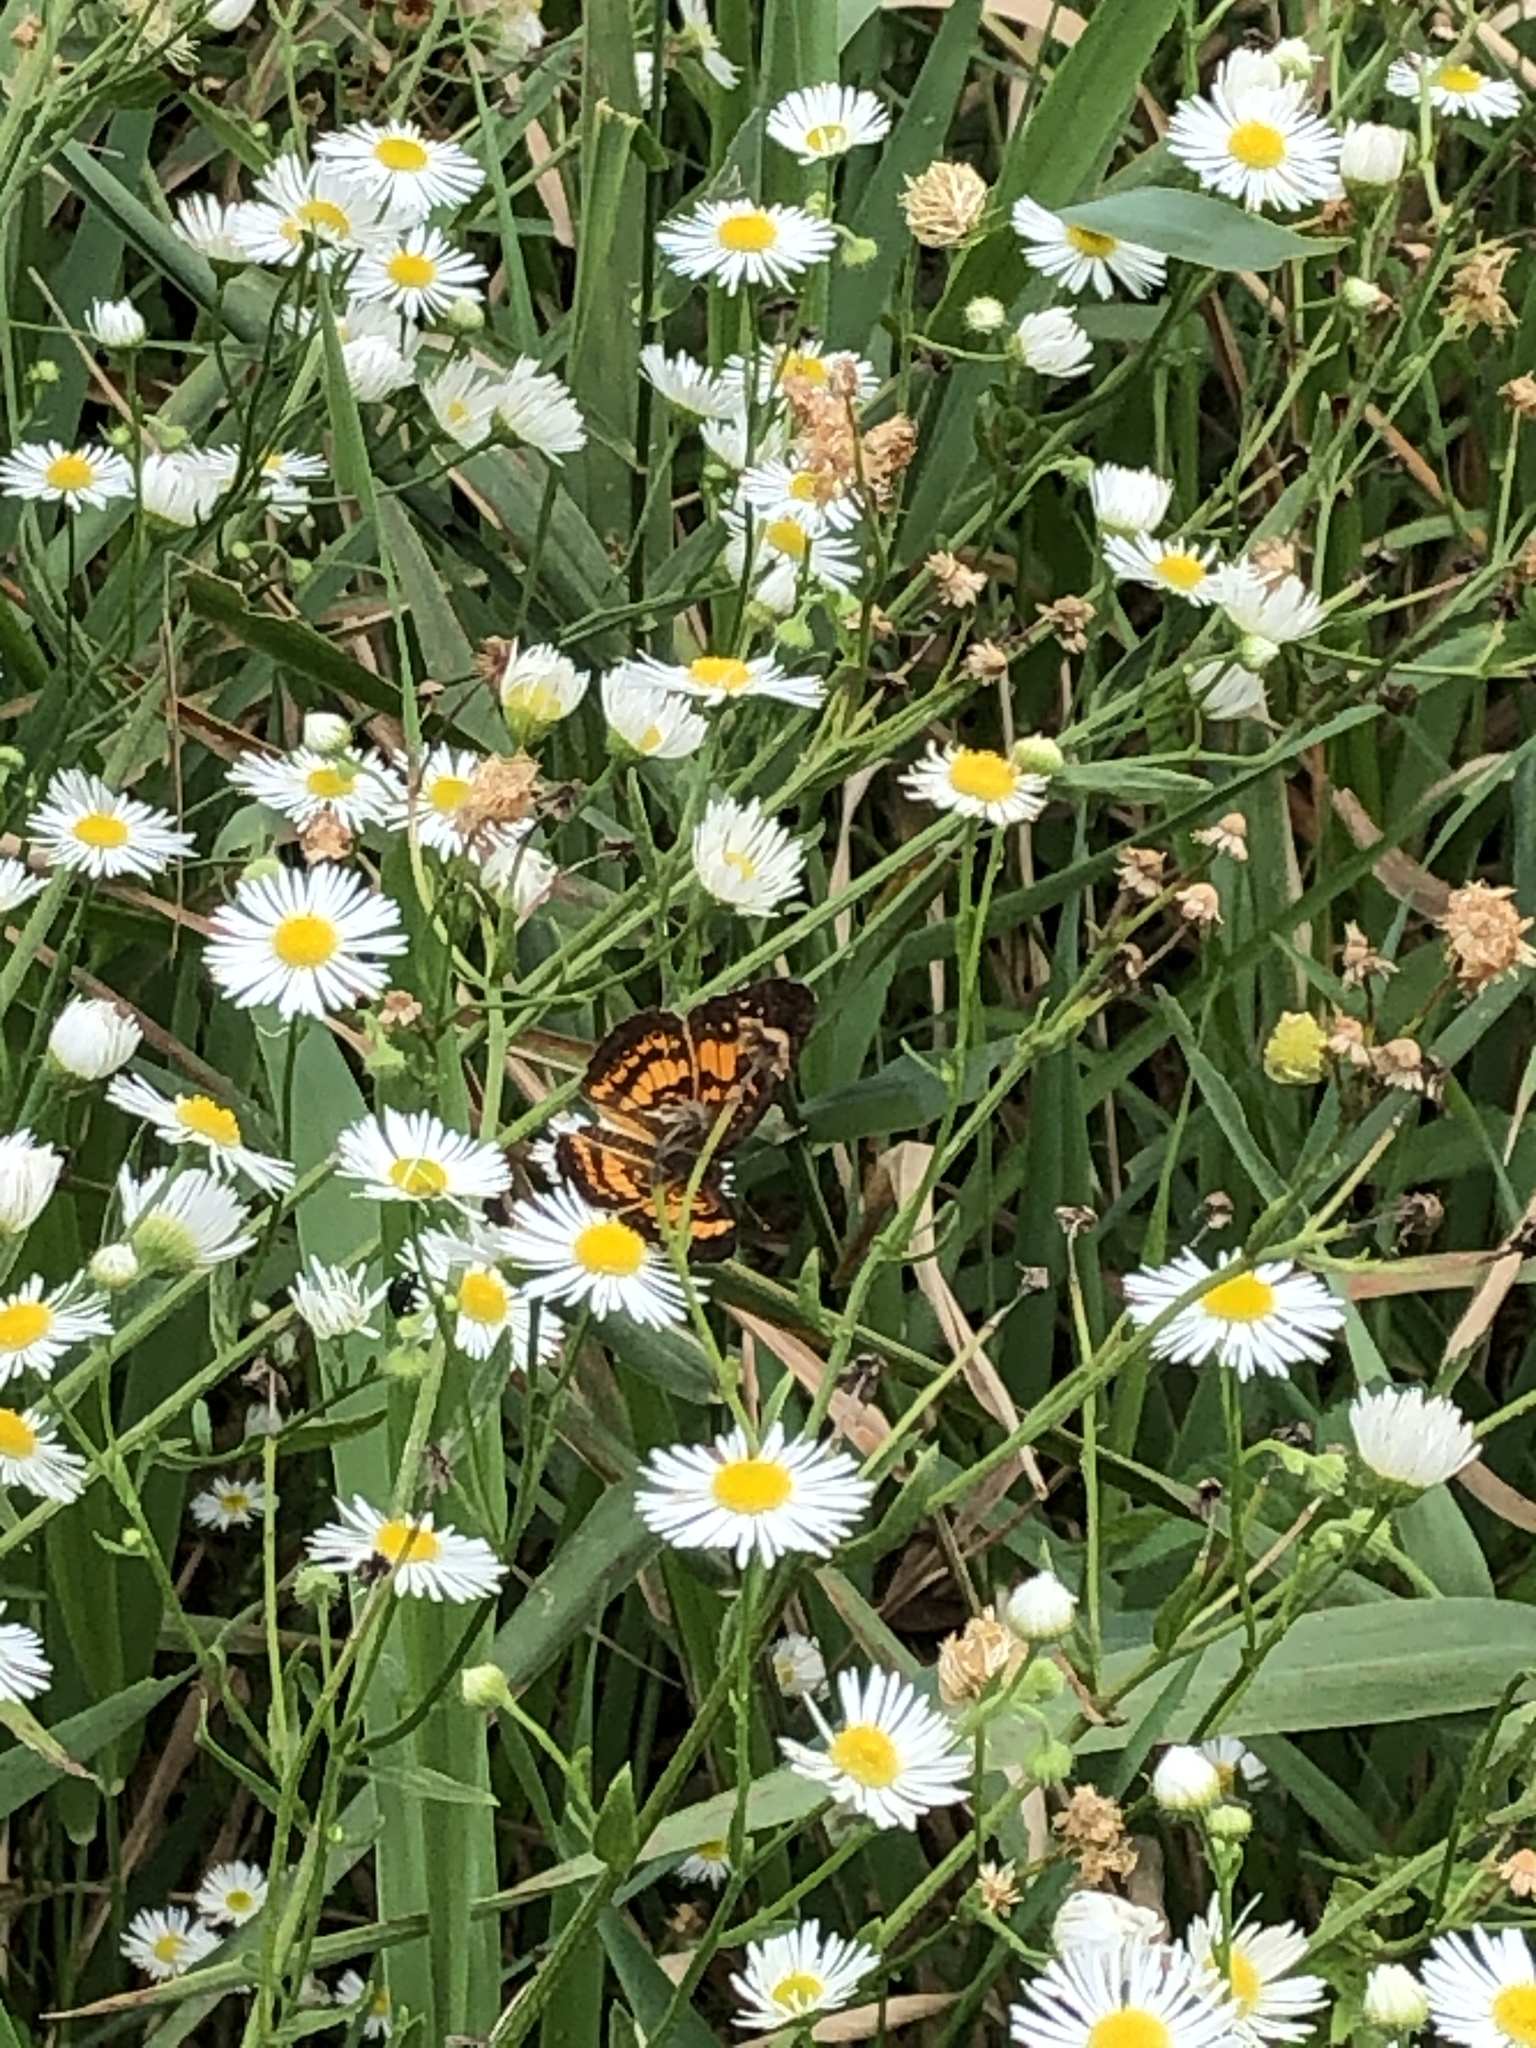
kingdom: Animalia
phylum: Arthropoda
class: Insecta
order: Lepidoptera
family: Nymphalidae
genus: Chlosyne
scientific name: Chlosyne nycteis
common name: Silvery checkerspot
